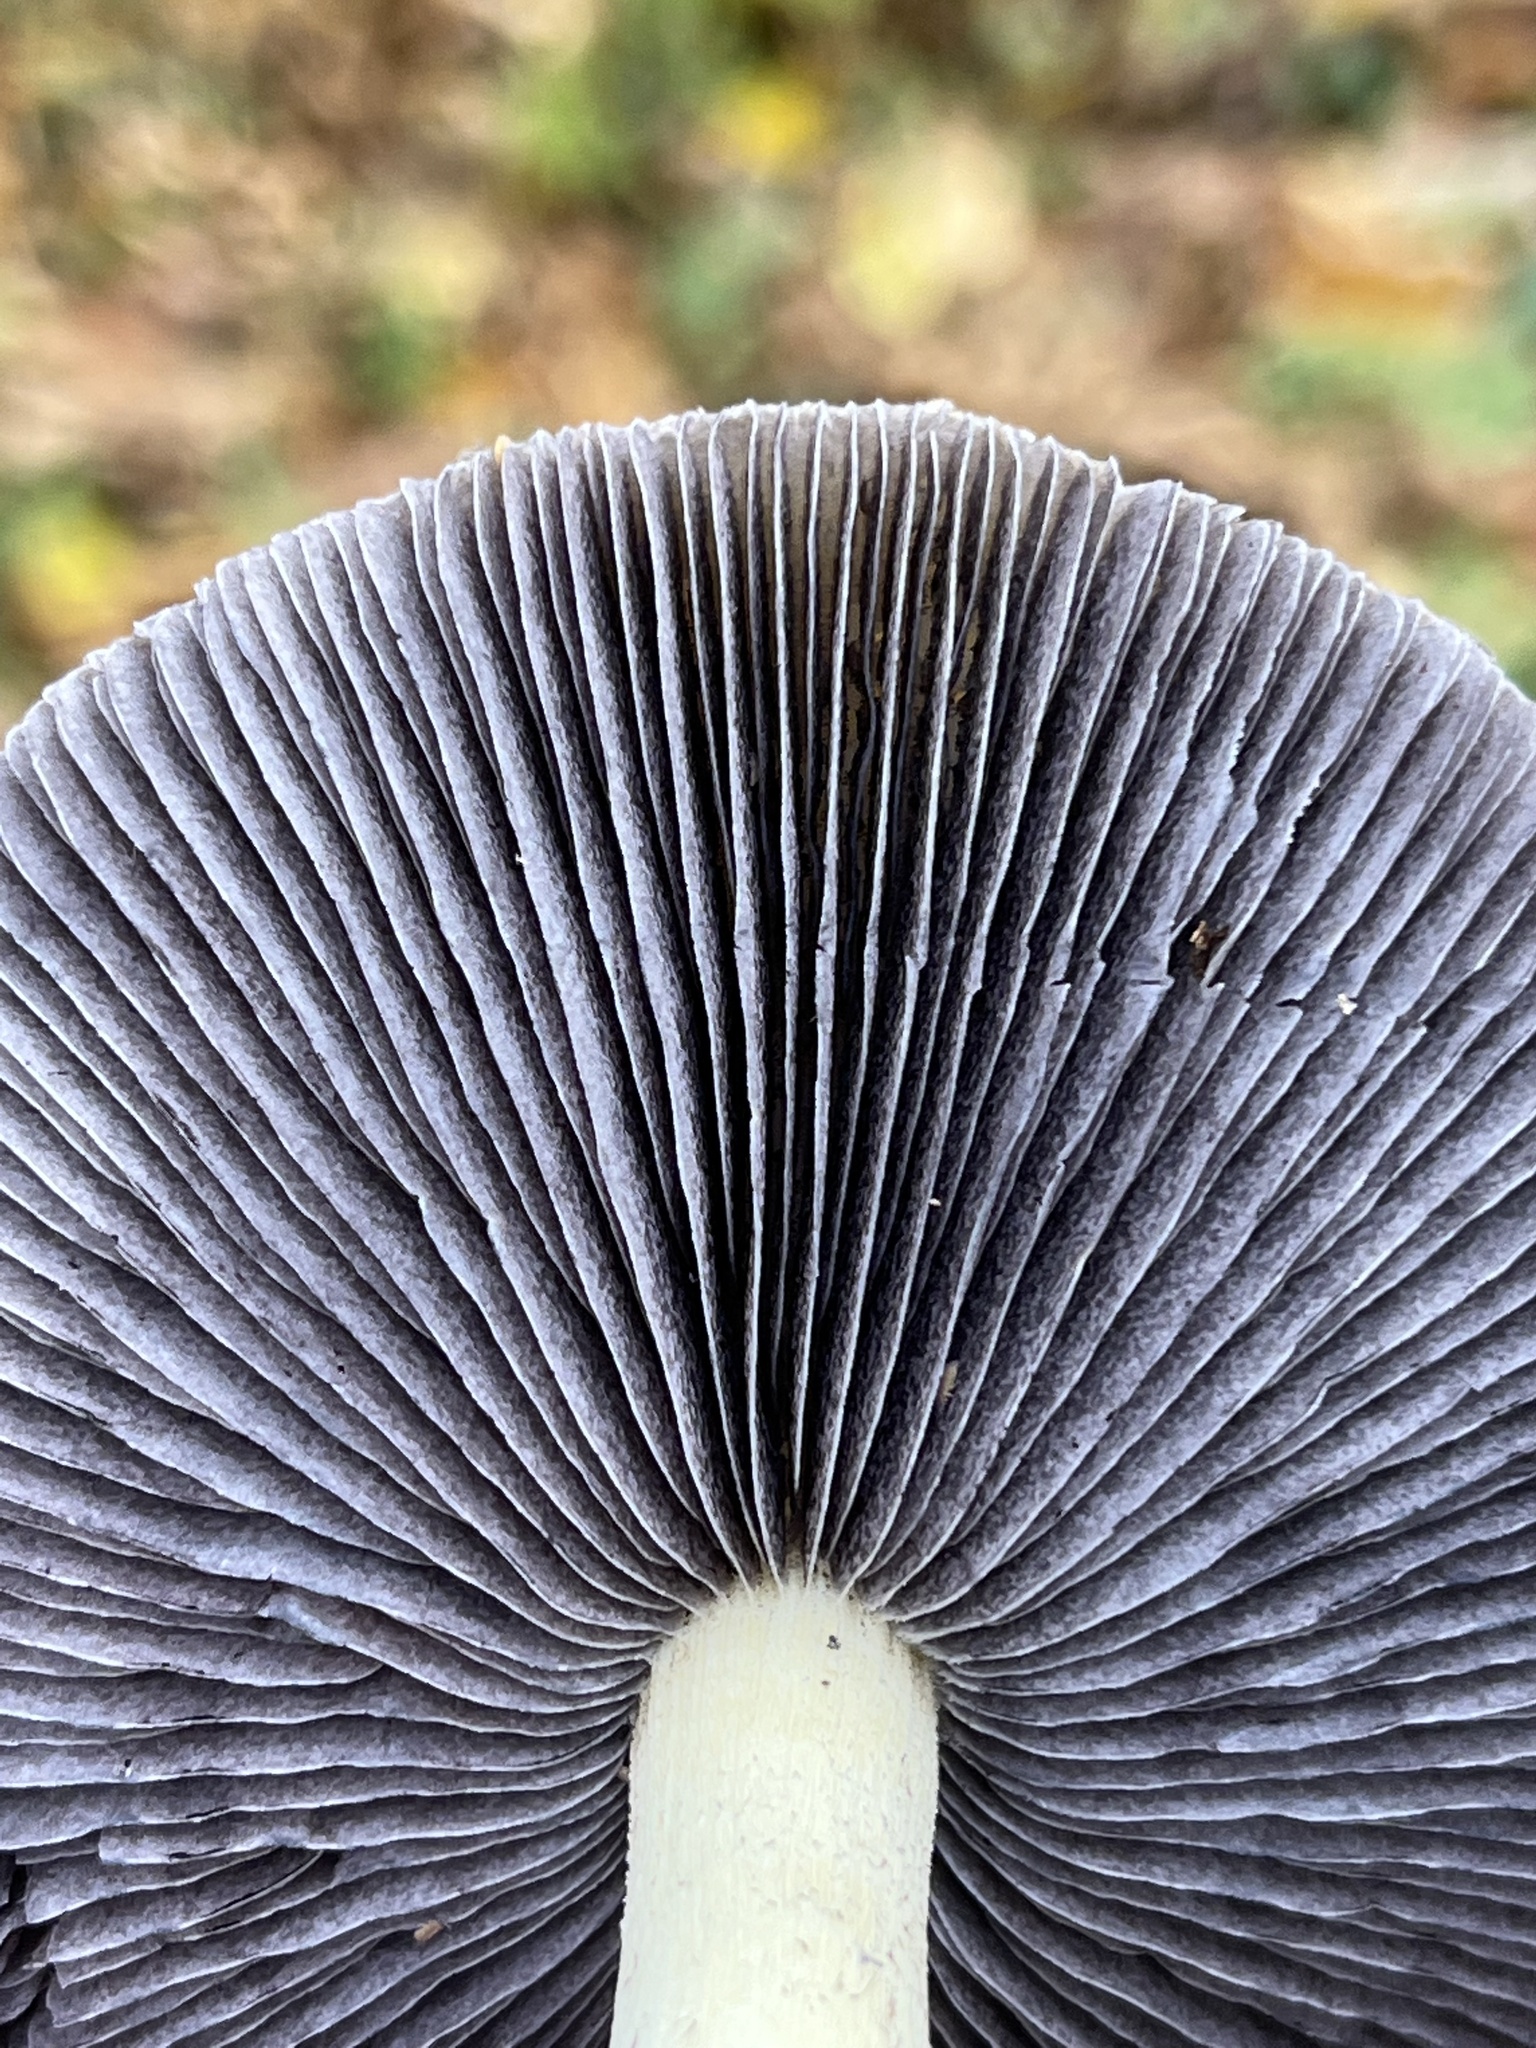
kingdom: Fungi
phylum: Basidiomycota
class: Agaricomycetes
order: Agaricales
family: Strophariaceae
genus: Stropharia
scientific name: Stropharia rugosoannulata
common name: Wine roundhead
